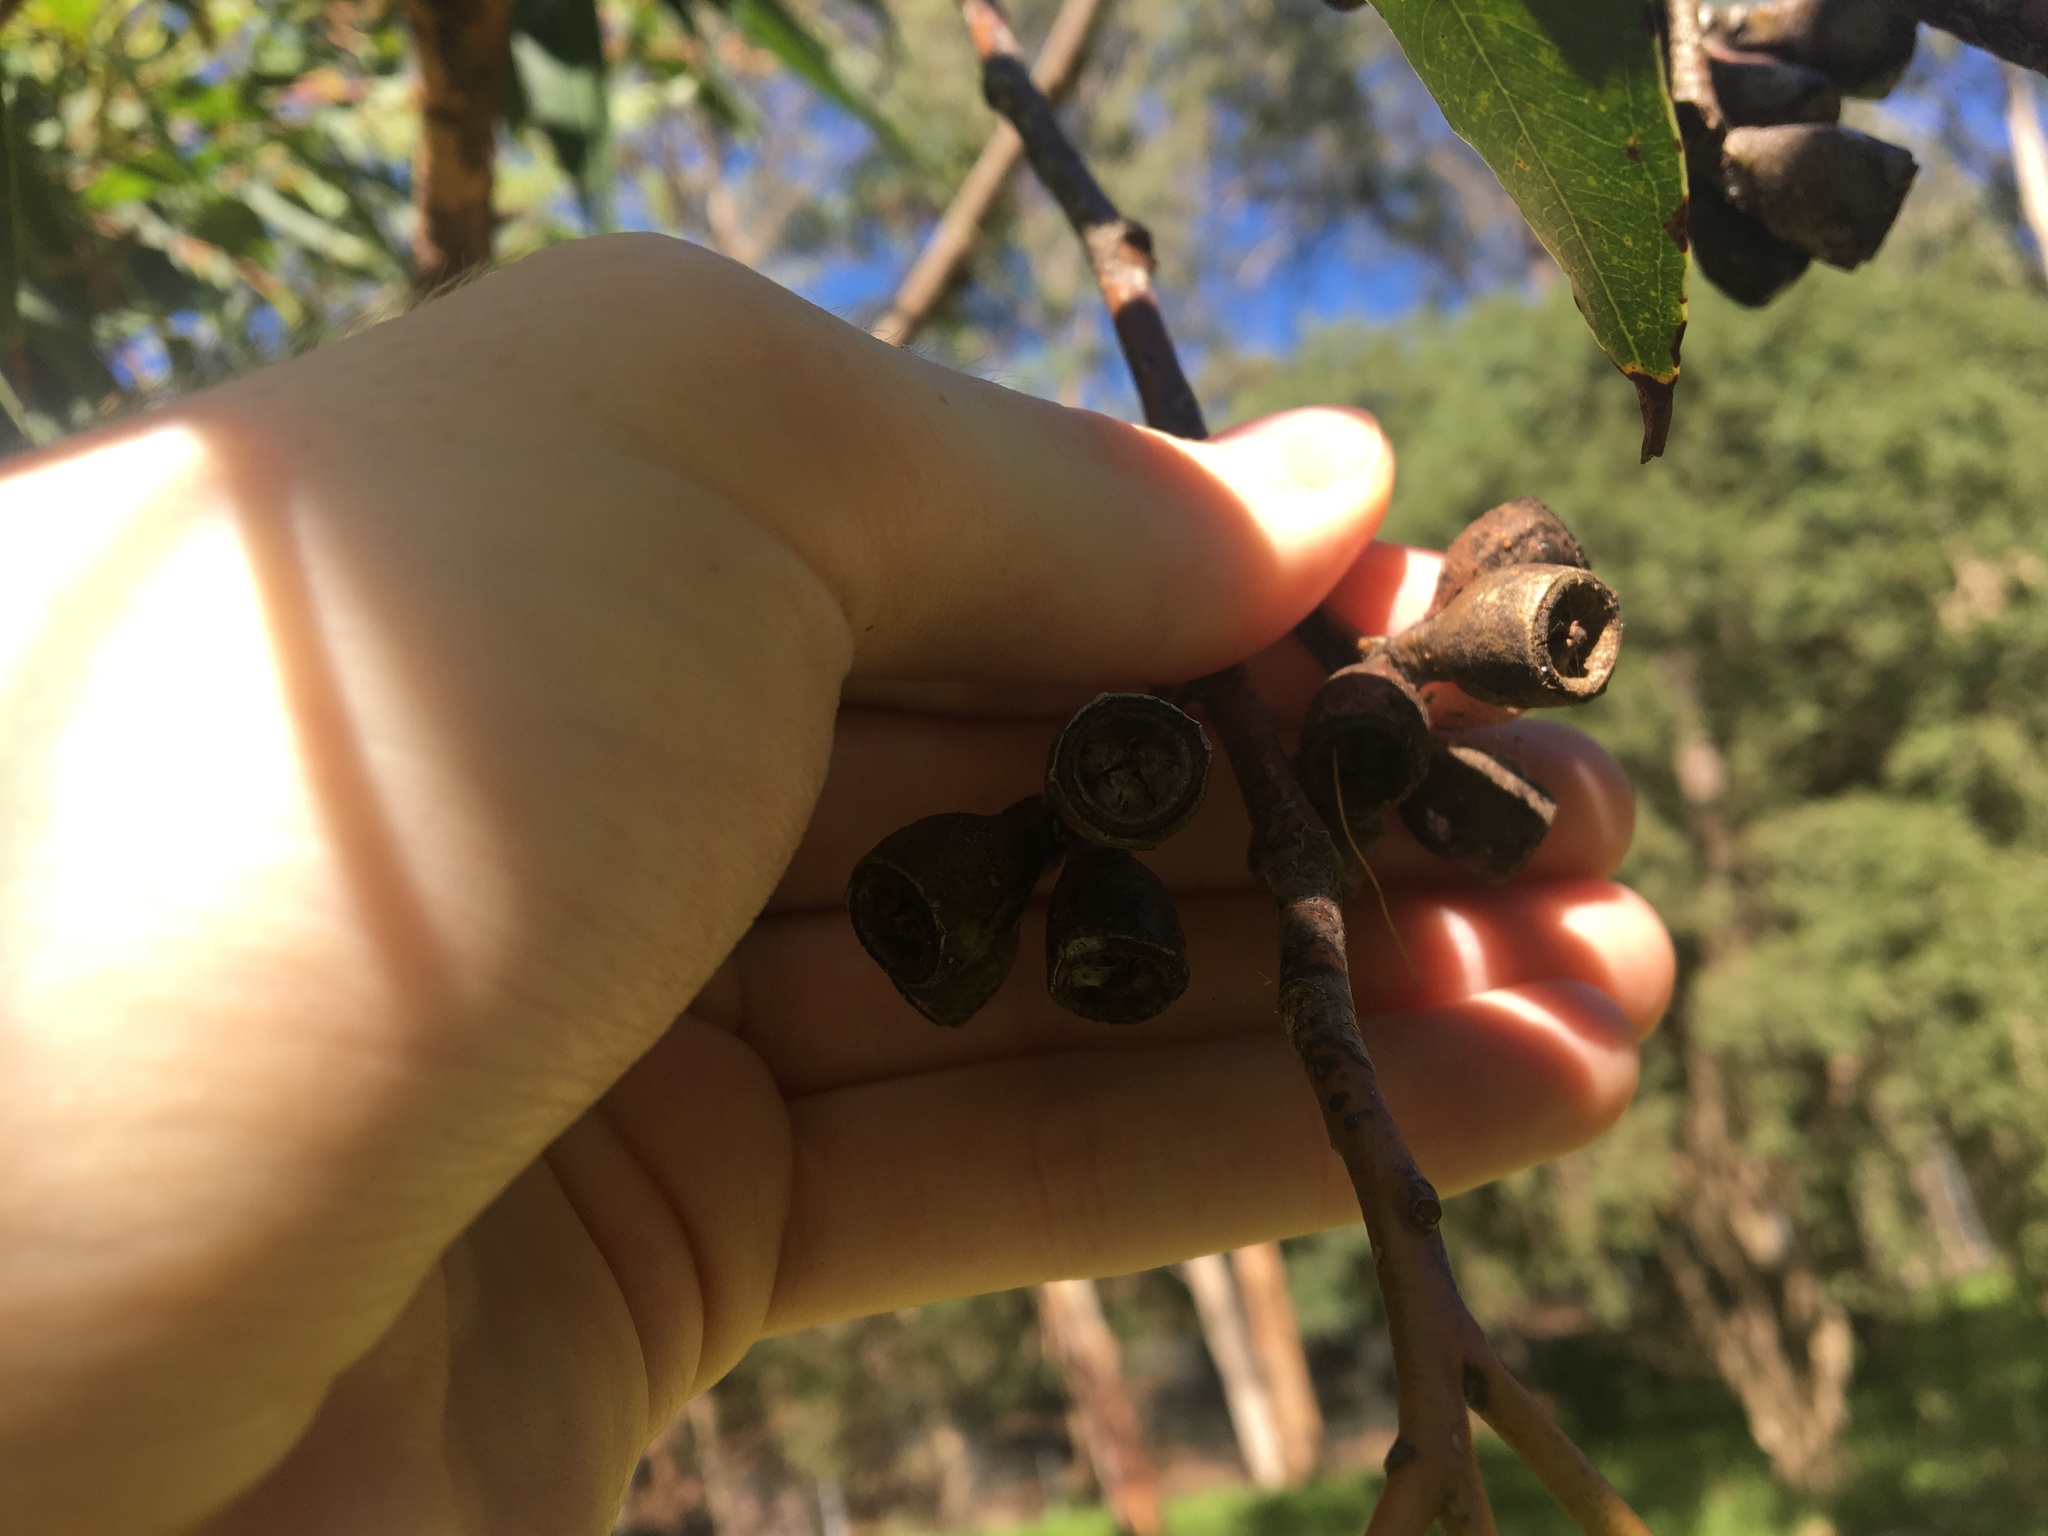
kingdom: Plantae
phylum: Tracheophyta
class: Magnoliopsida
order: Myrtales
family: Myrtaceae
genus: Eucalyptus
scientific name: Eucalyptus robusta
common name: Swampmahogany
